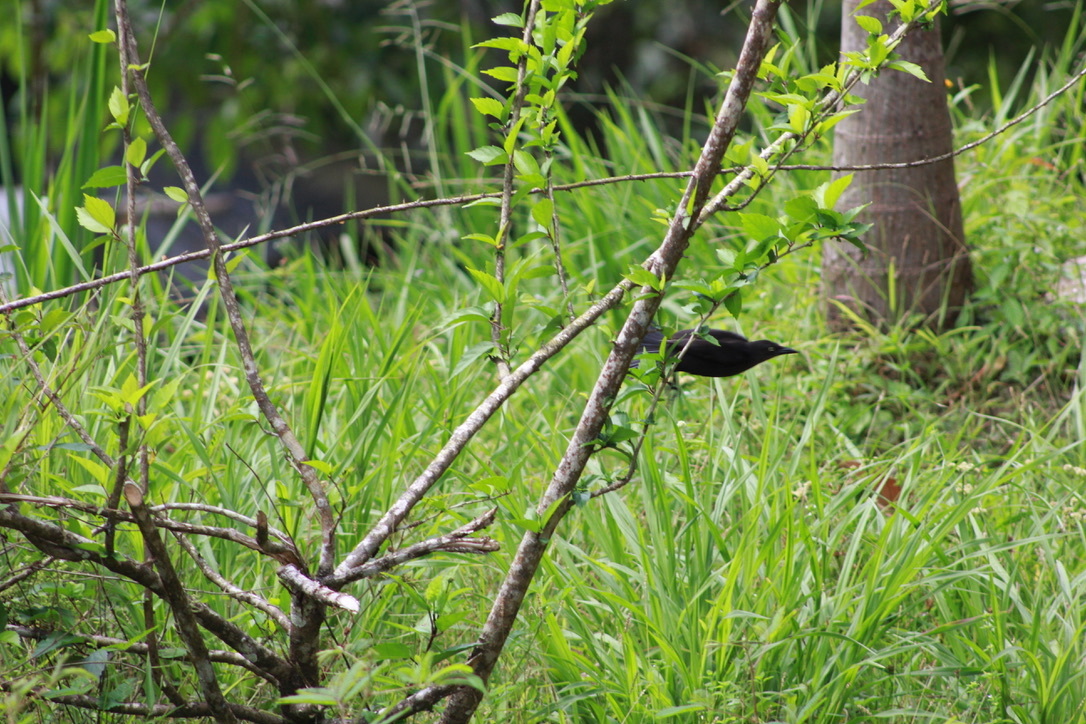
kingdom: Animalia
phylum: Chordata
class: Aves
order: Passeriformes
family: Icteridae
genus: Quiscalus
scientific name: Quiscalus lugubris
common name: Carib grackle
